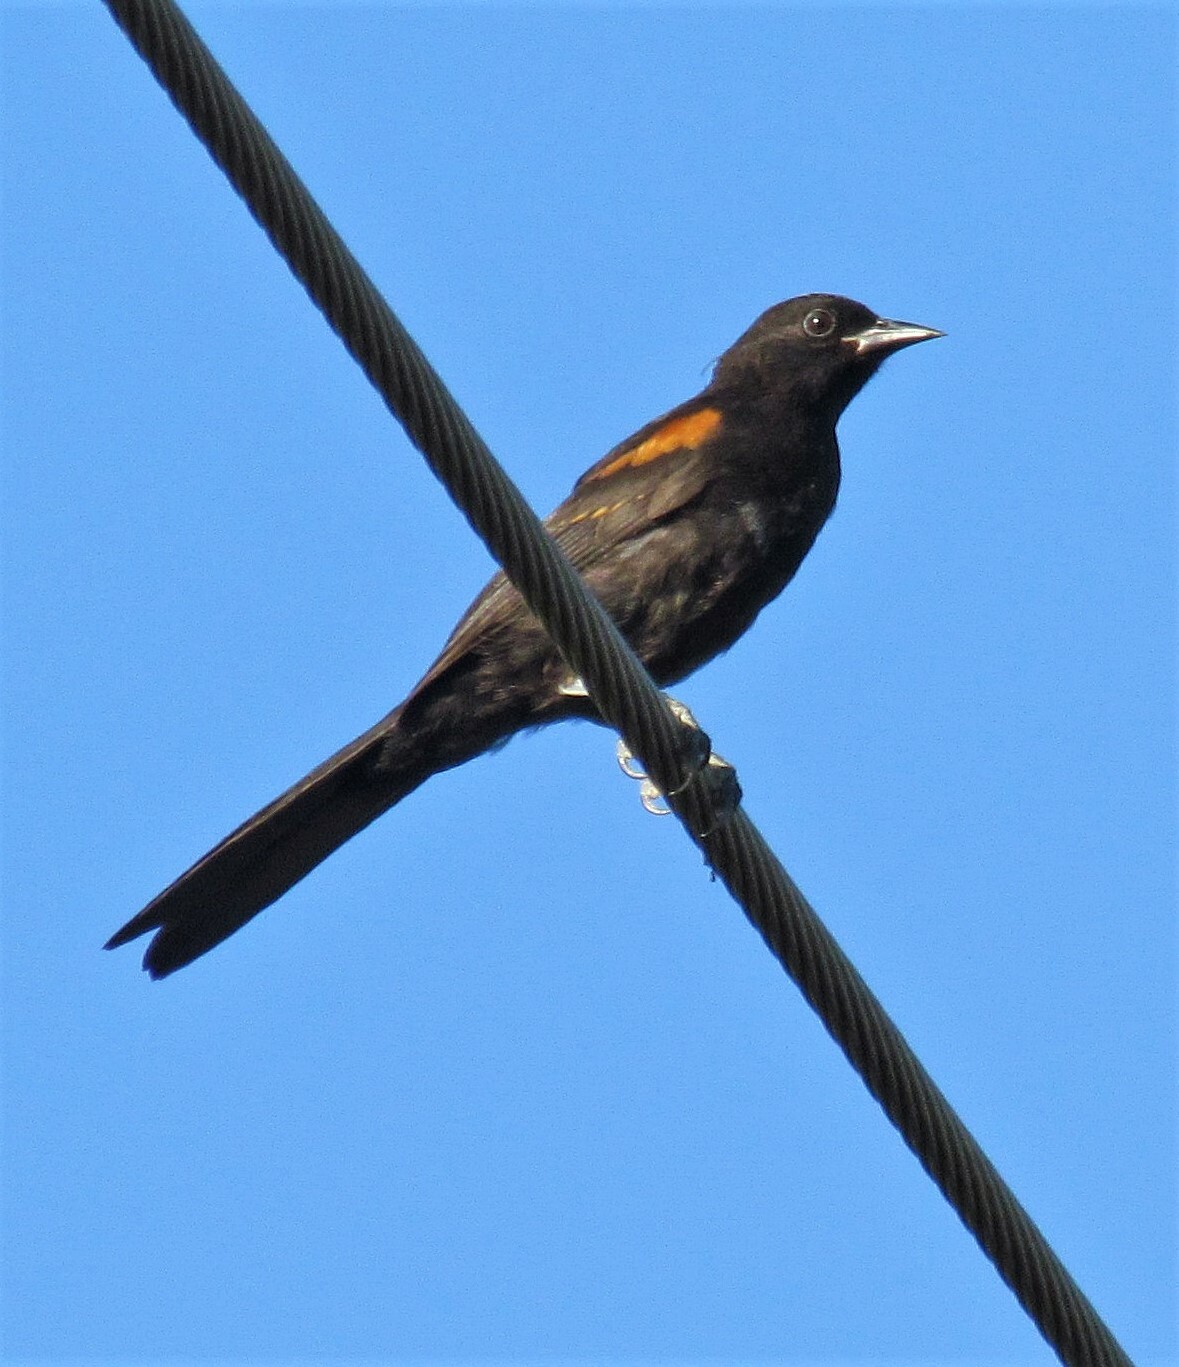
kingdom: Animalia
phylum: Chordata
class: Aves
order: Passeriformes
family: Icteridae
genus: Icterus
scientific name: Icterus cayanensis
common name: Epaulet oriole
